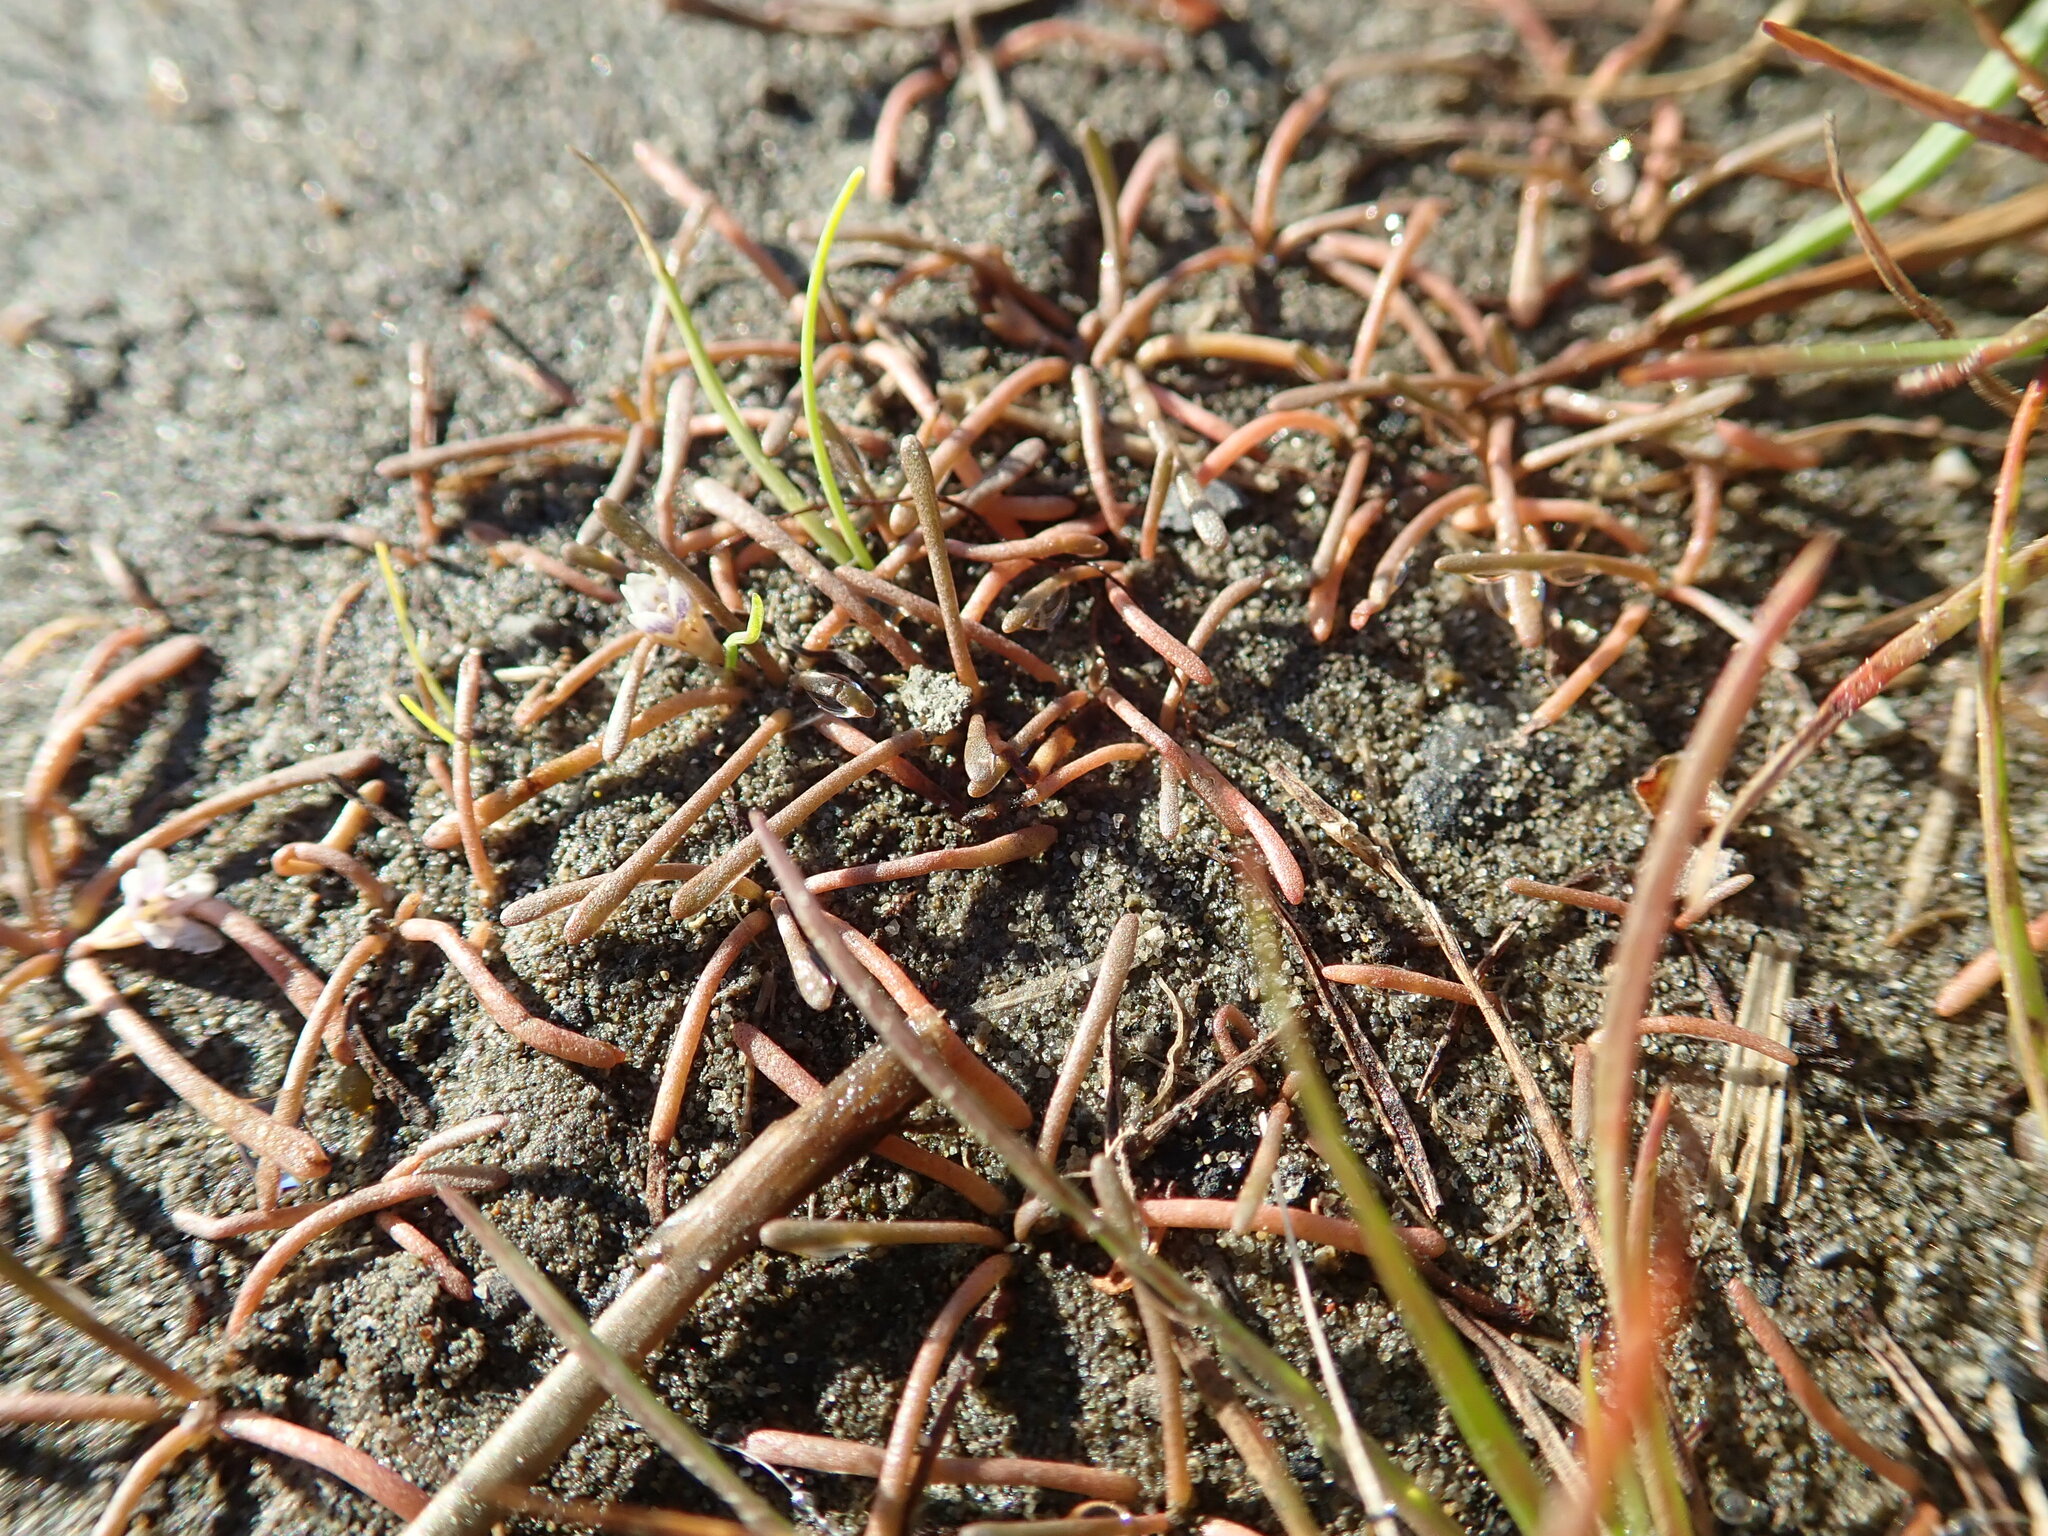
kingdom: Plantae
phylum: Tracheophyta
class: Magnoliopsida
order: Lamiales
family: Scrophulariaceae
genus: Limosella
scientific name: Limosella australis
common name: Welsh mudwort
